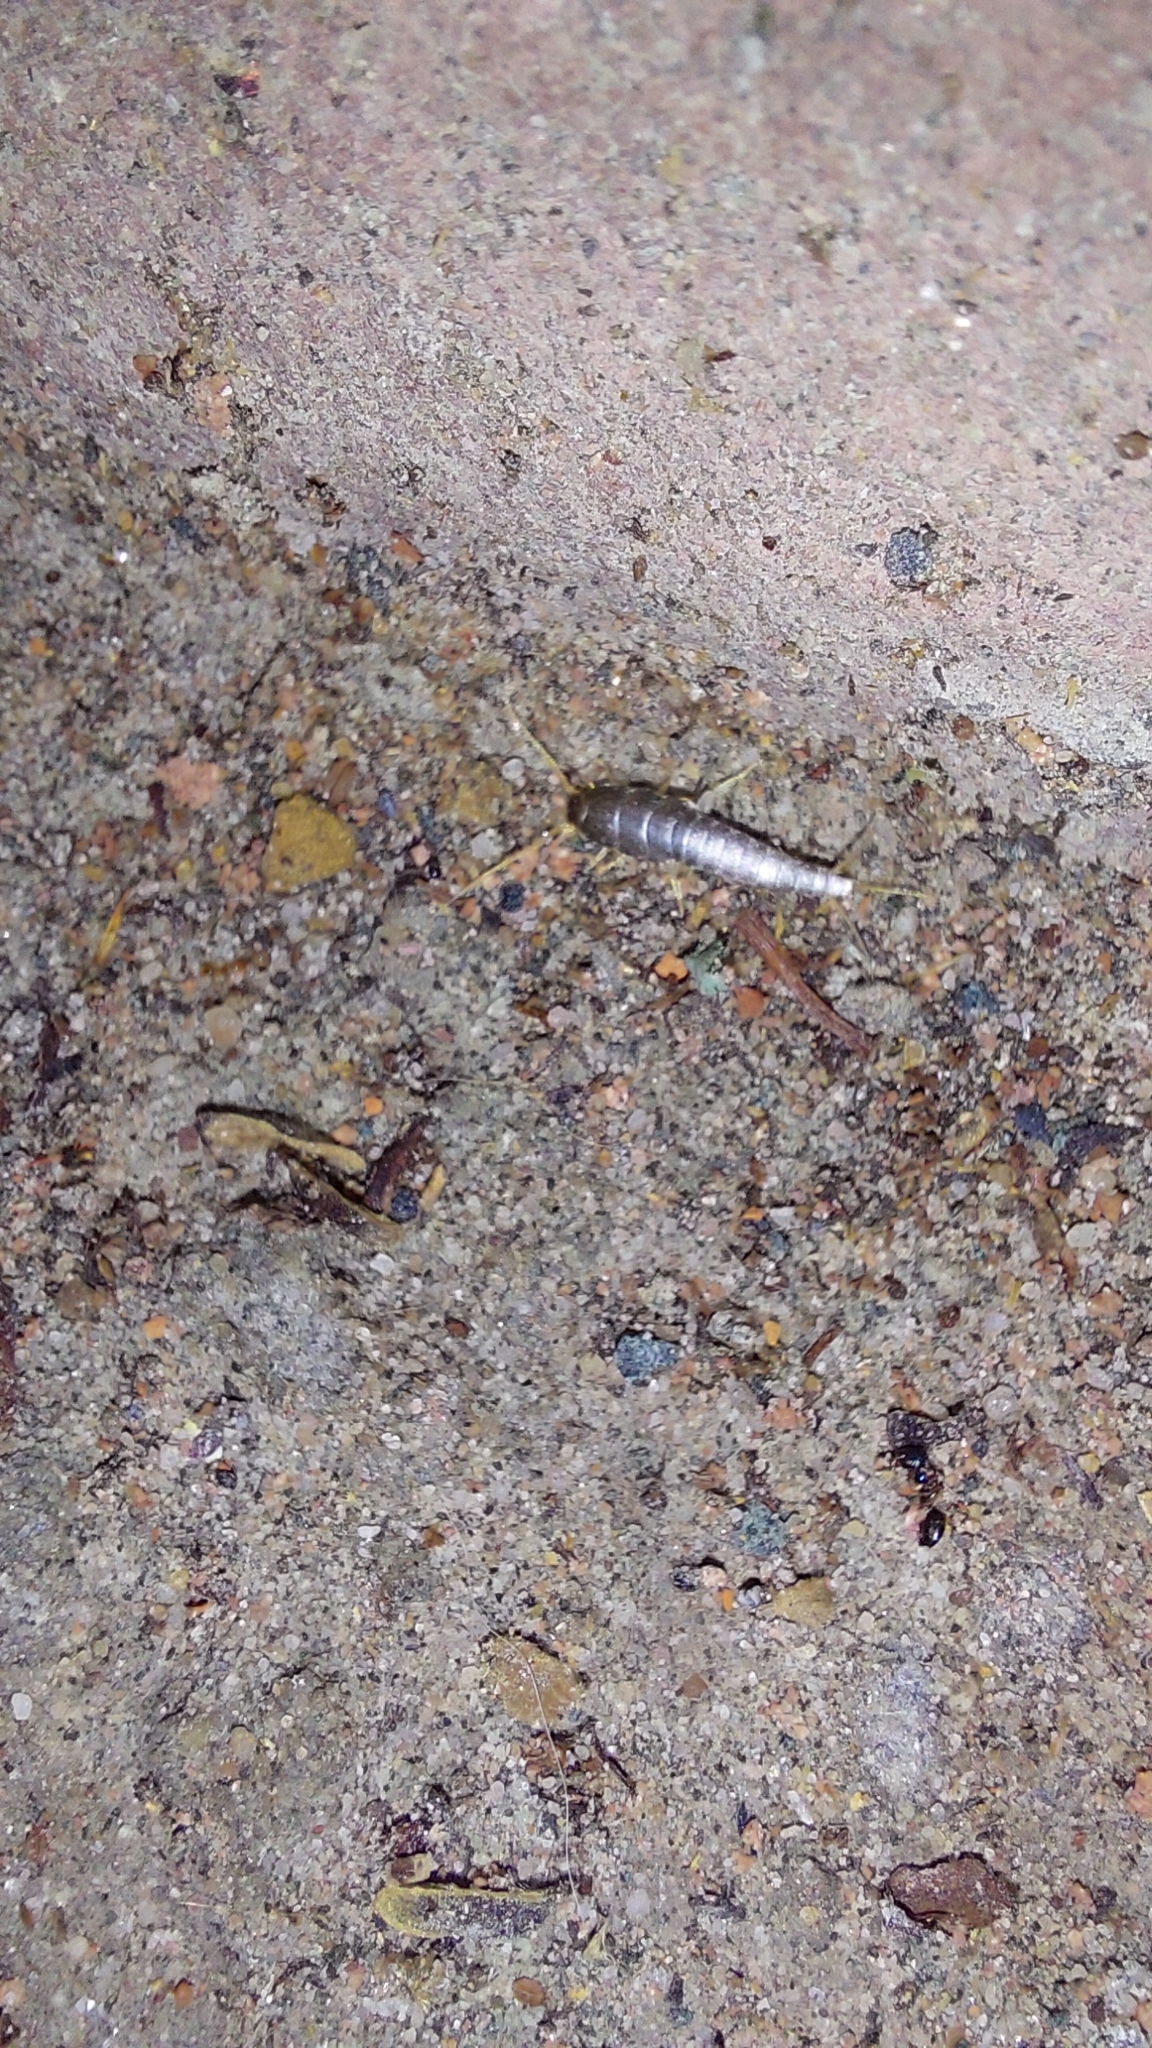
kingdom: Animalia
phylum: Arthropoda
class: Insecta
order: Zygentoma
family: Lepismatidae
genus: Lepisma
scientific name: Lepisma saccharinum
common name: Silverfish
